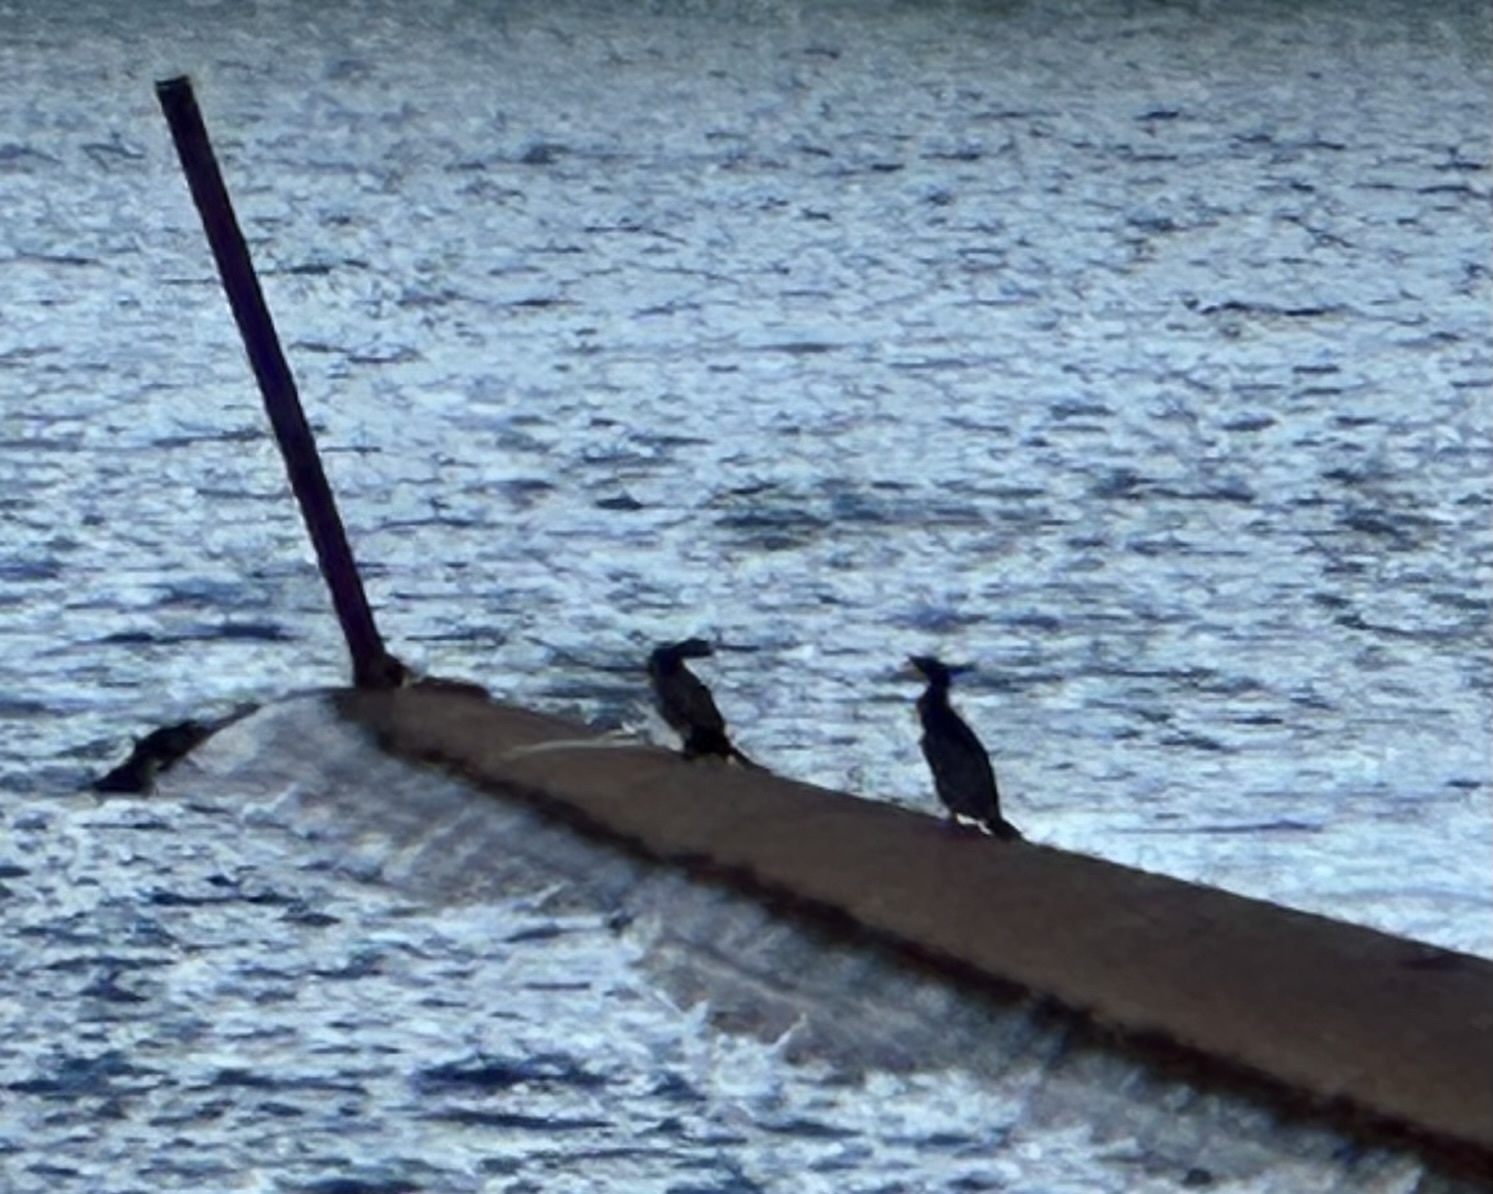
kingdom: Animalia
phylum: Chordata
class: Aves
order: Suliformes
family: Phalacrocoracidae
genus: Phalacrocorax
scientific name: Phalacrocorax carbo
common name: Great cormorant
